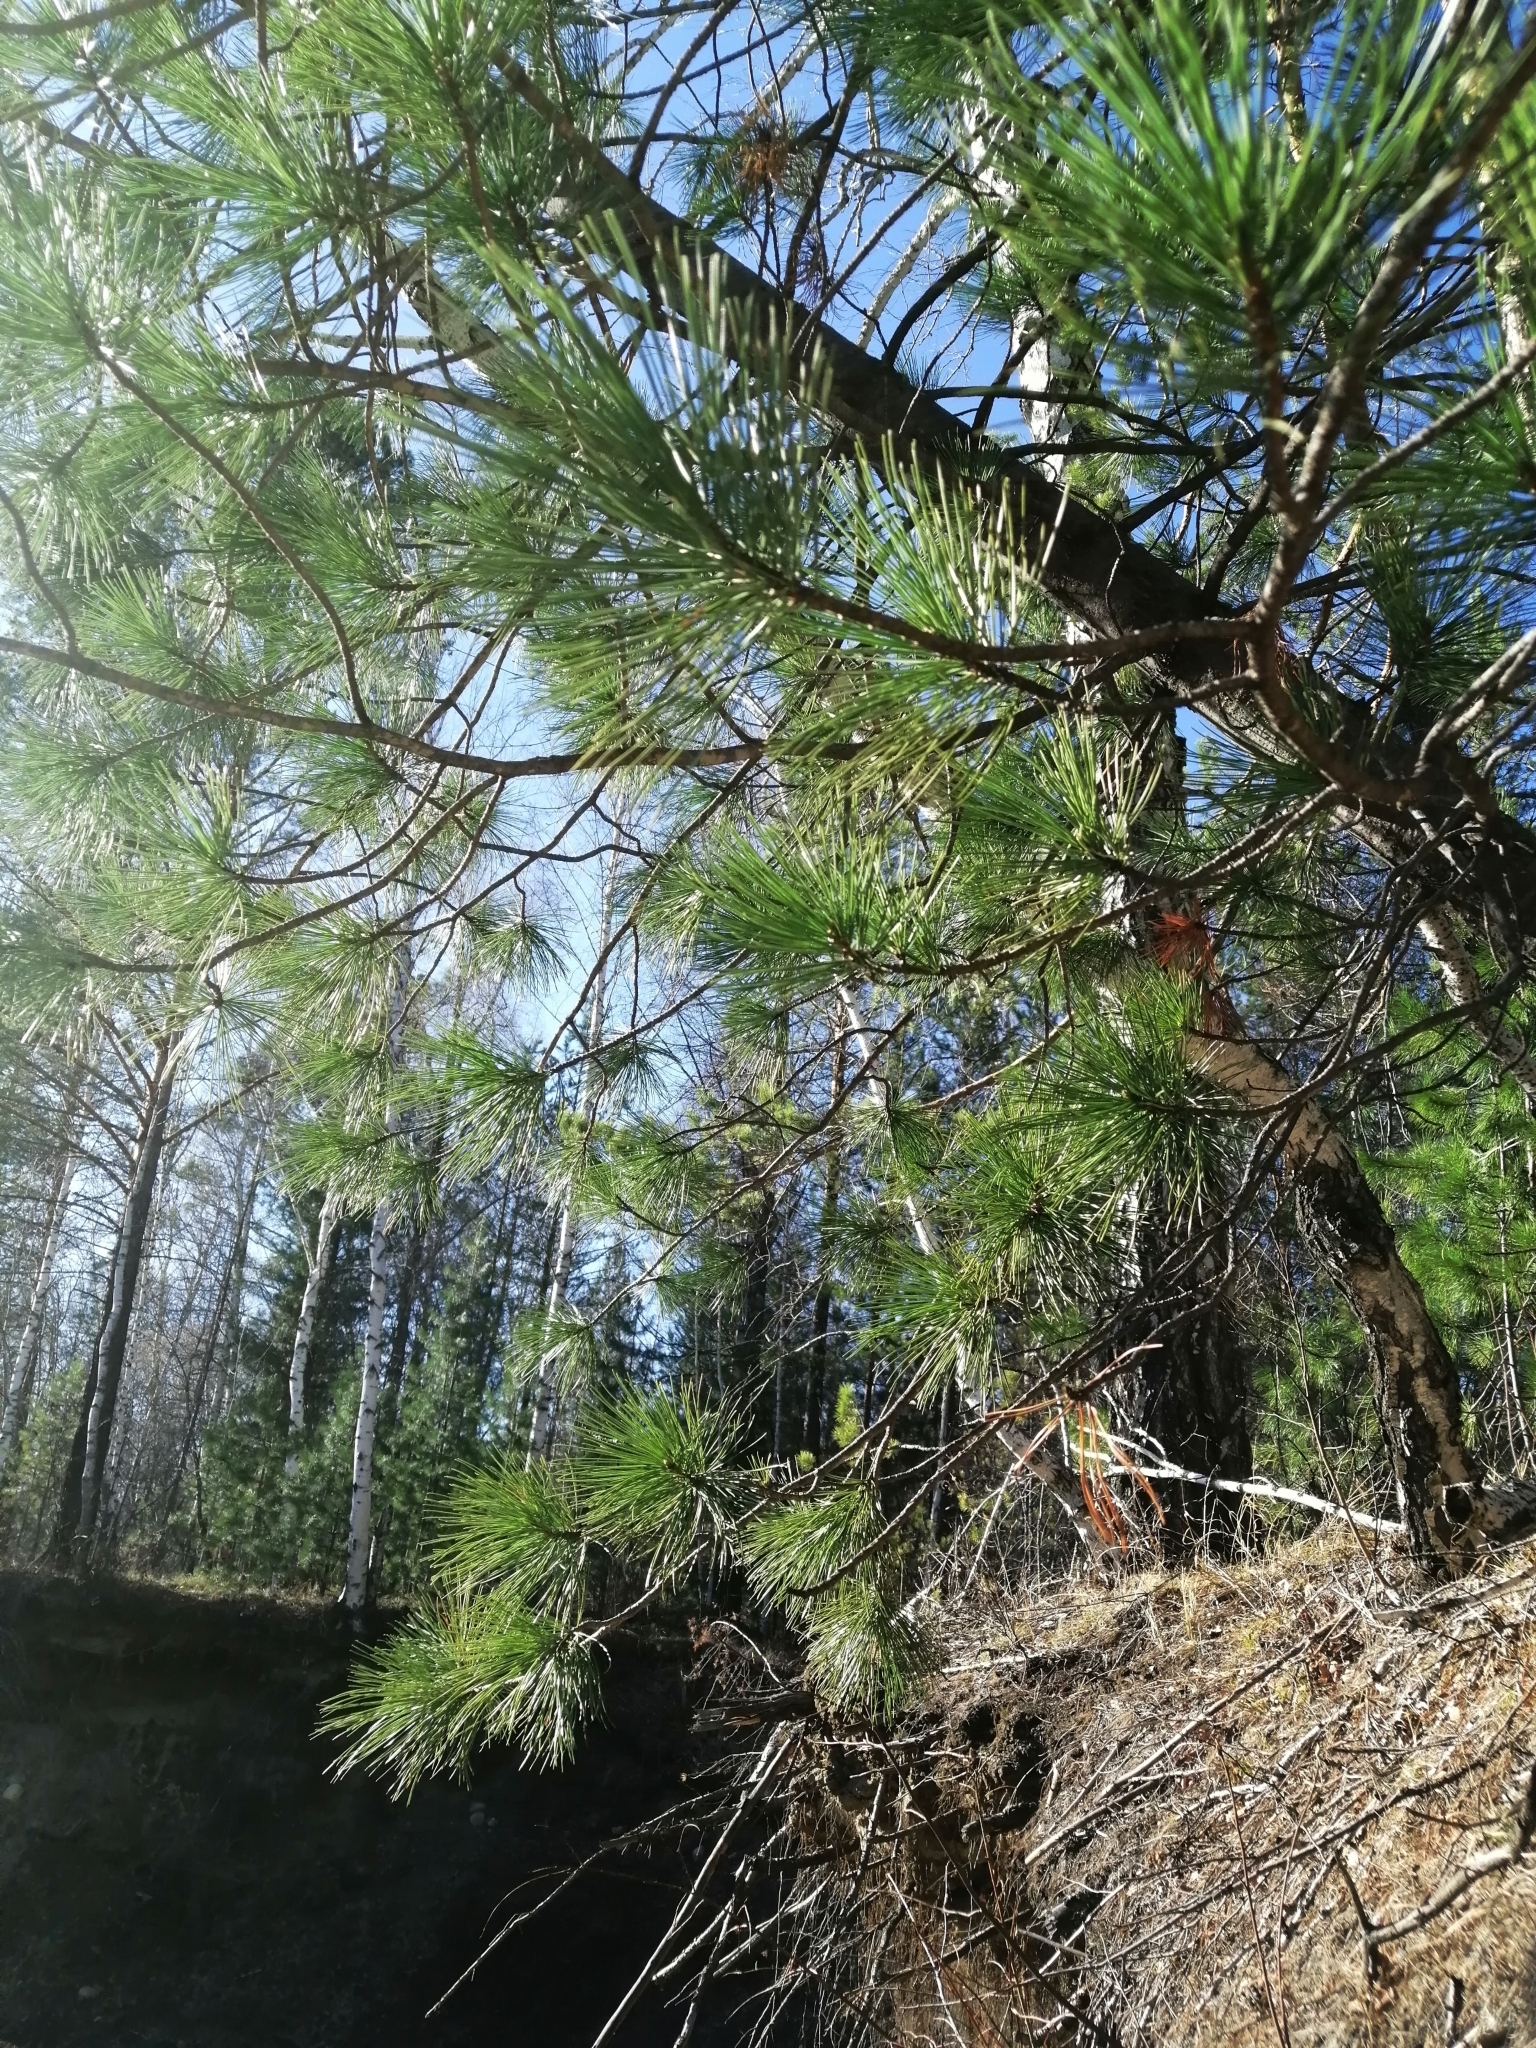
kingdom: Plantae
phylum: Tracheophyta
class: Pinopsida
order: Pinales
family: Pinaceae
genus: Pinus
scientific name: Pinus sibirica
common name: Siberian pine
